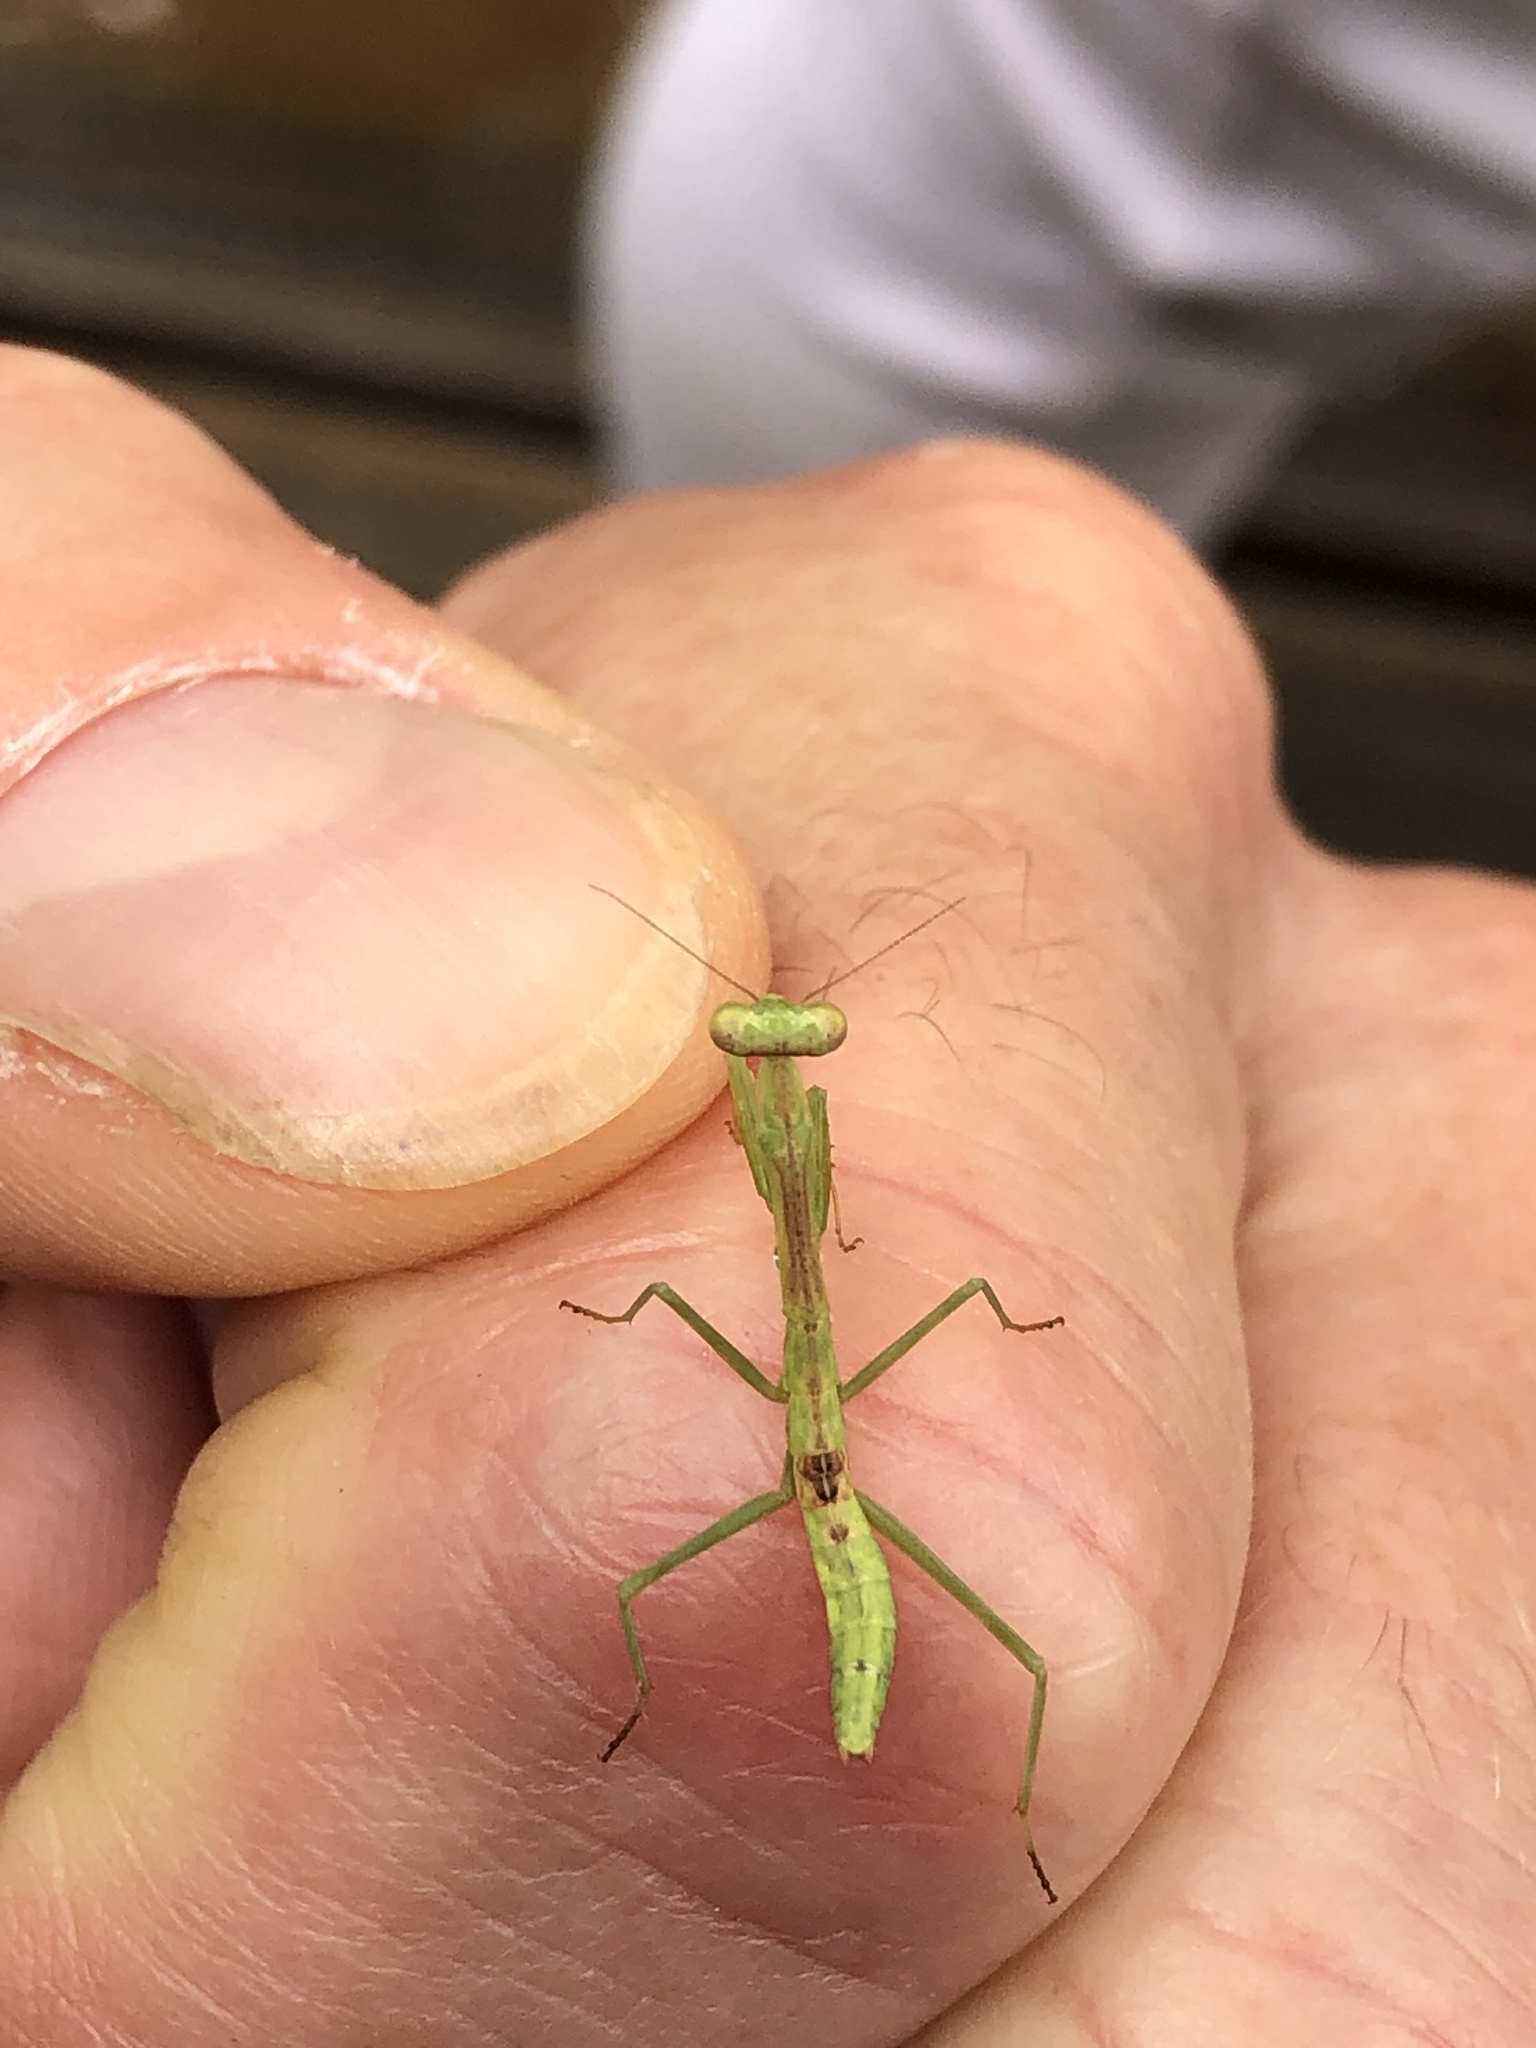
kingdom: Animalia
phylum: Arthropoda
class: Insecta
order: Mantodea
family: Mantidae
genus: Stagmomantis
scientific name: Stagmomantis carolina
